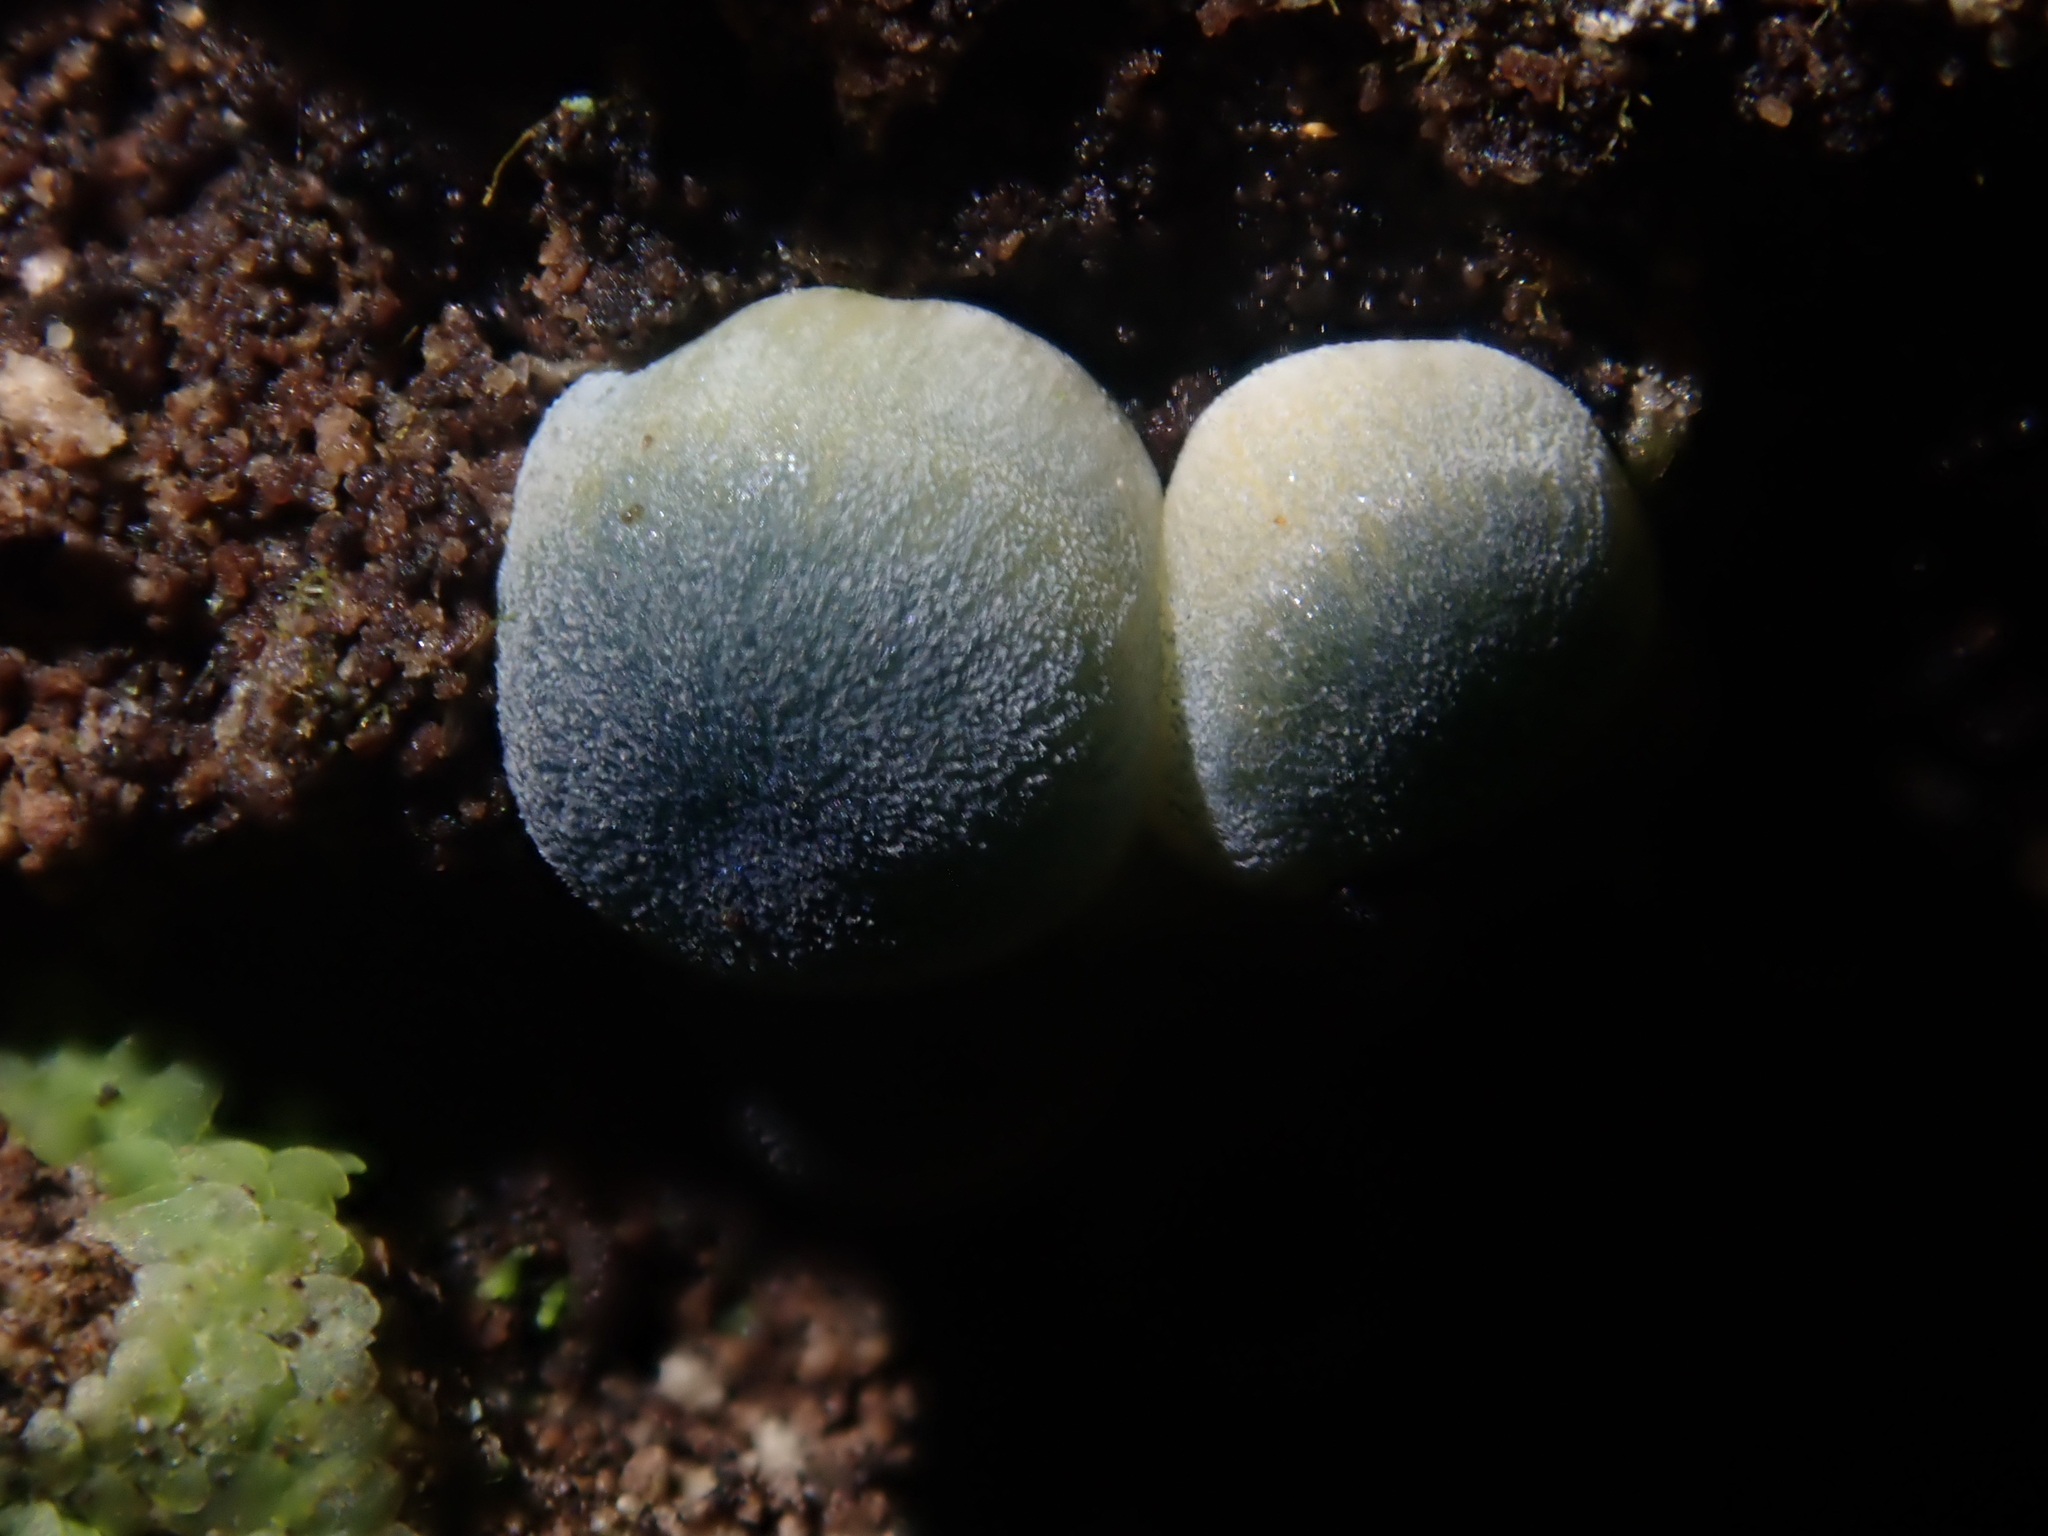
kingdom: Fungi
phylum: Basidiomycota
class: Agaricomycetes
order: Agaricales
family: Mycenaceae
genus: Mycena
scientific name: Mycena interrupta
